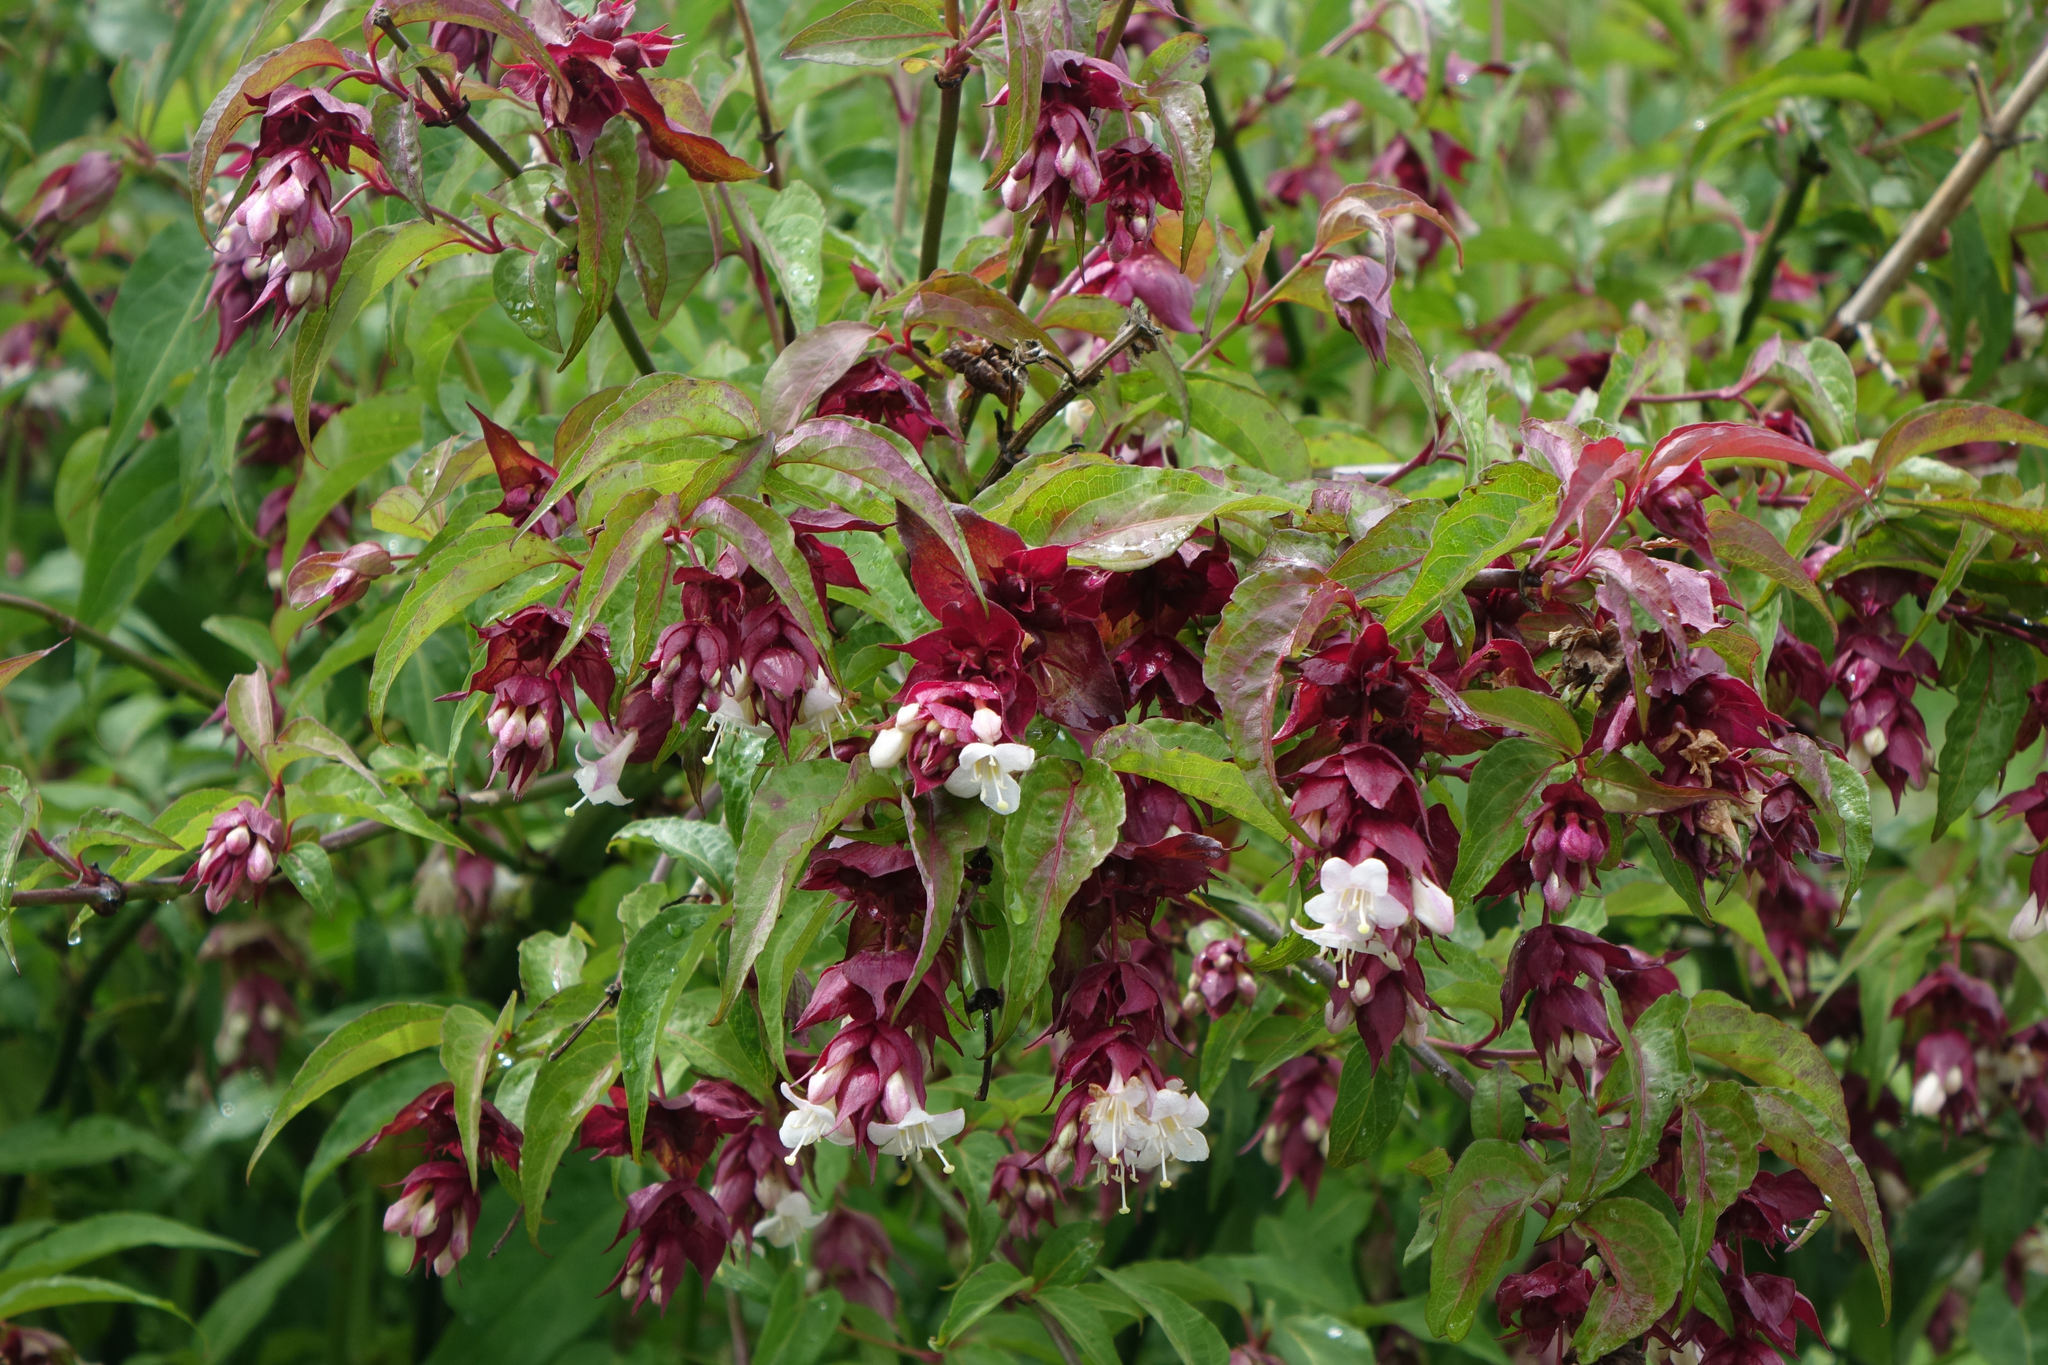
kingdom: Plantae
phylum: Tracheophyta
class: Magnoliopsida
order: Dipsacales
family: Caprifoliaceae
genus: Leycesteria
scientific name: Leycesteria formosa
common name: Himalayan honeysuckle
